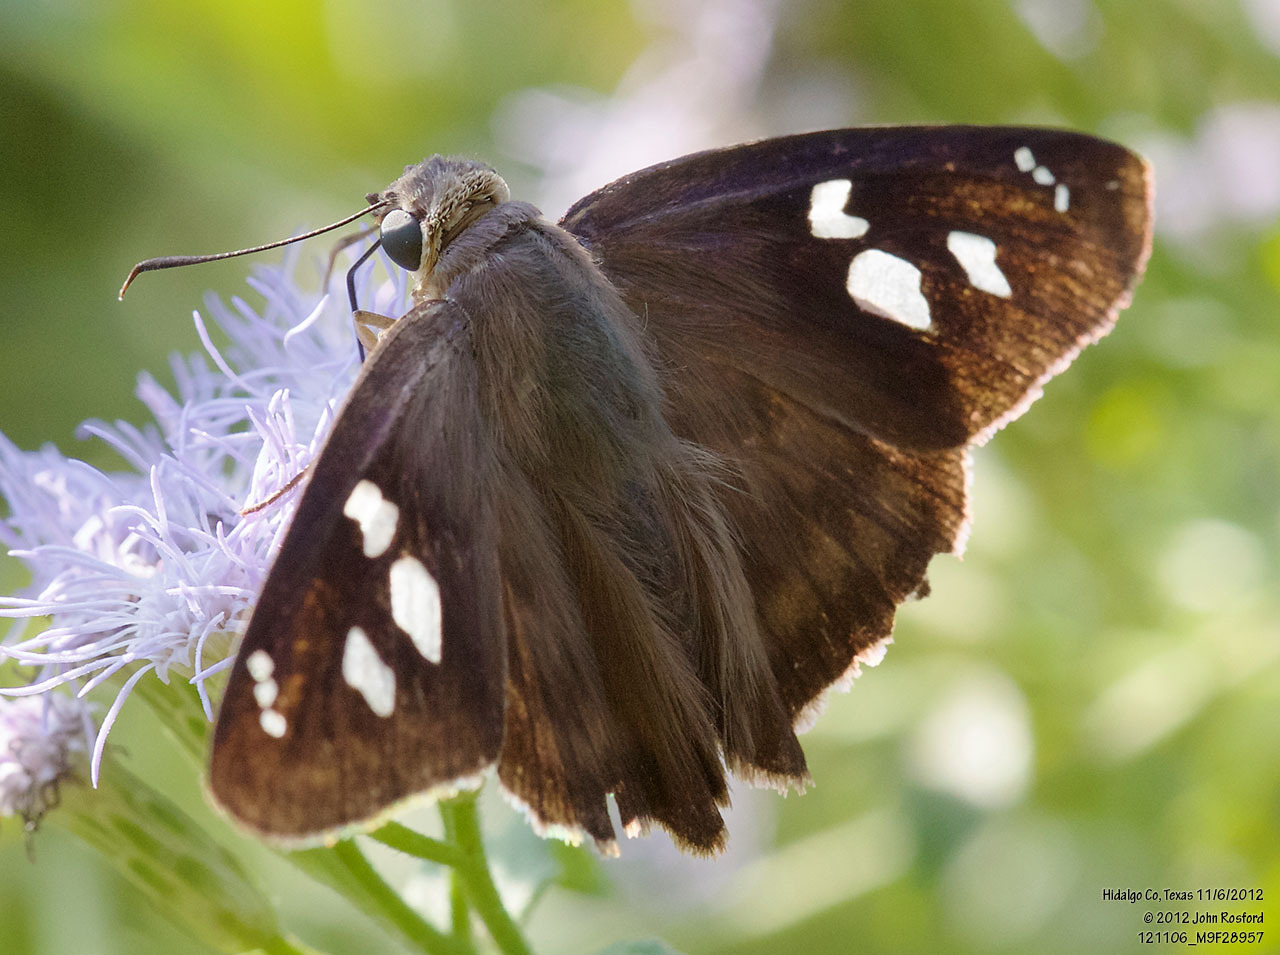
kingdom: Animalia
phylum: Arthropoda
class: Insecta
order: Lepidoptera
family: Hesperiidae
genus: Polygonus
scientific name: Polygonus leo
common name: Hammoch skipper
